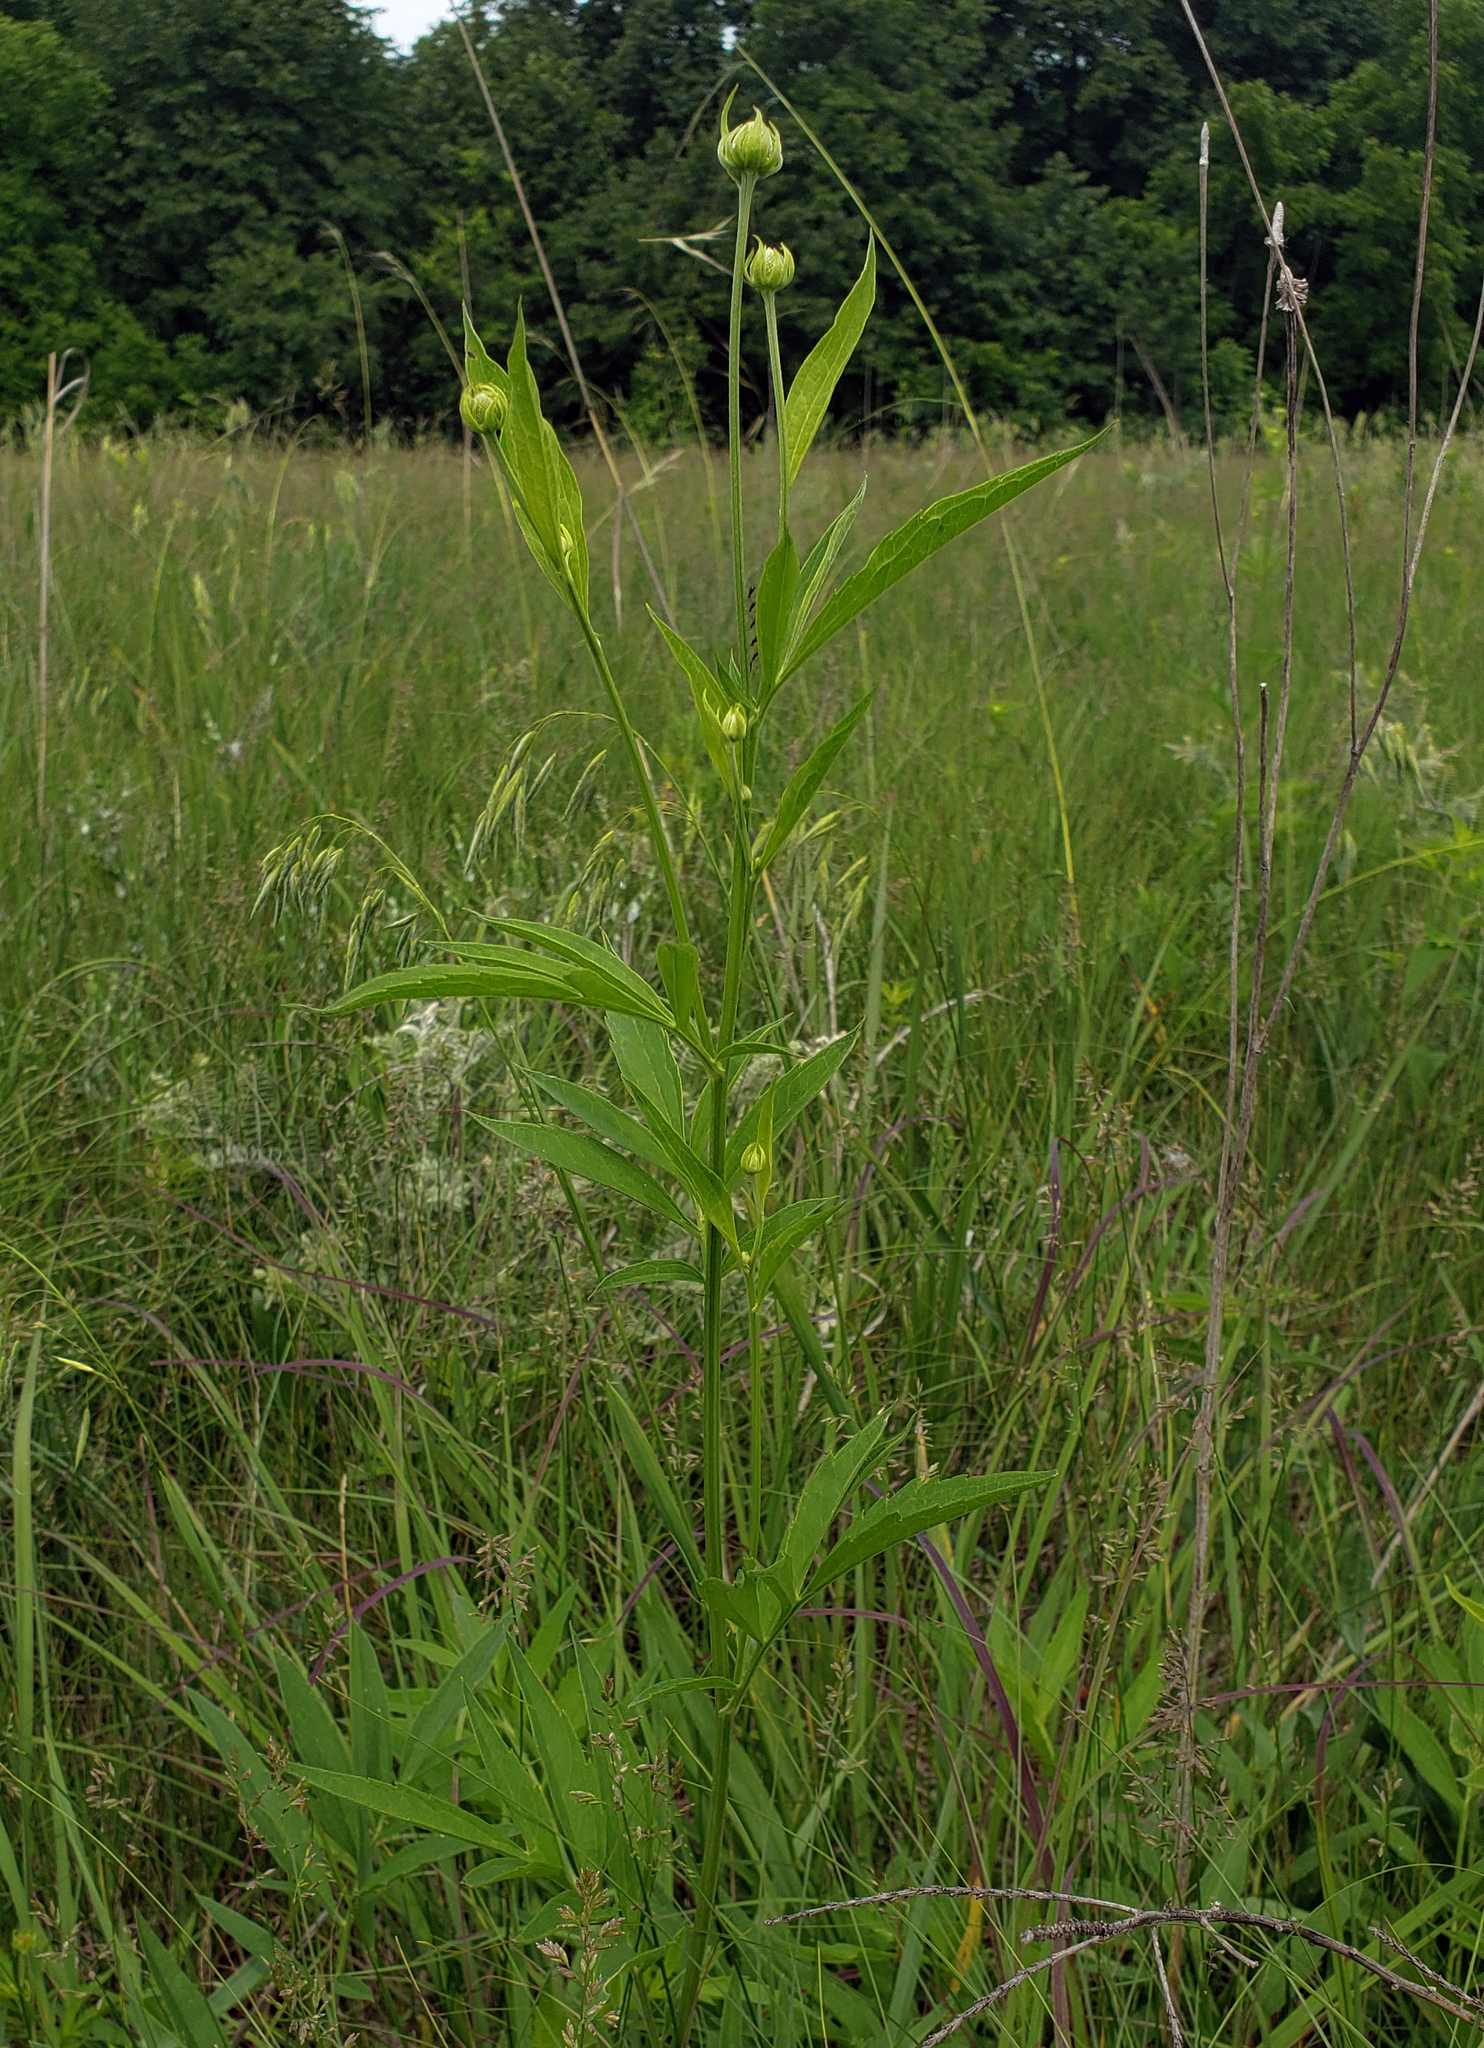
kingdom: Plantae
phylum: Tracheophyta
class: Magnoliopsida
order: Asterales
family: Asteraceae
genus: Ratibida
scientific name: Ratibida pinnata
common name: Drooping prairie-coneflower
